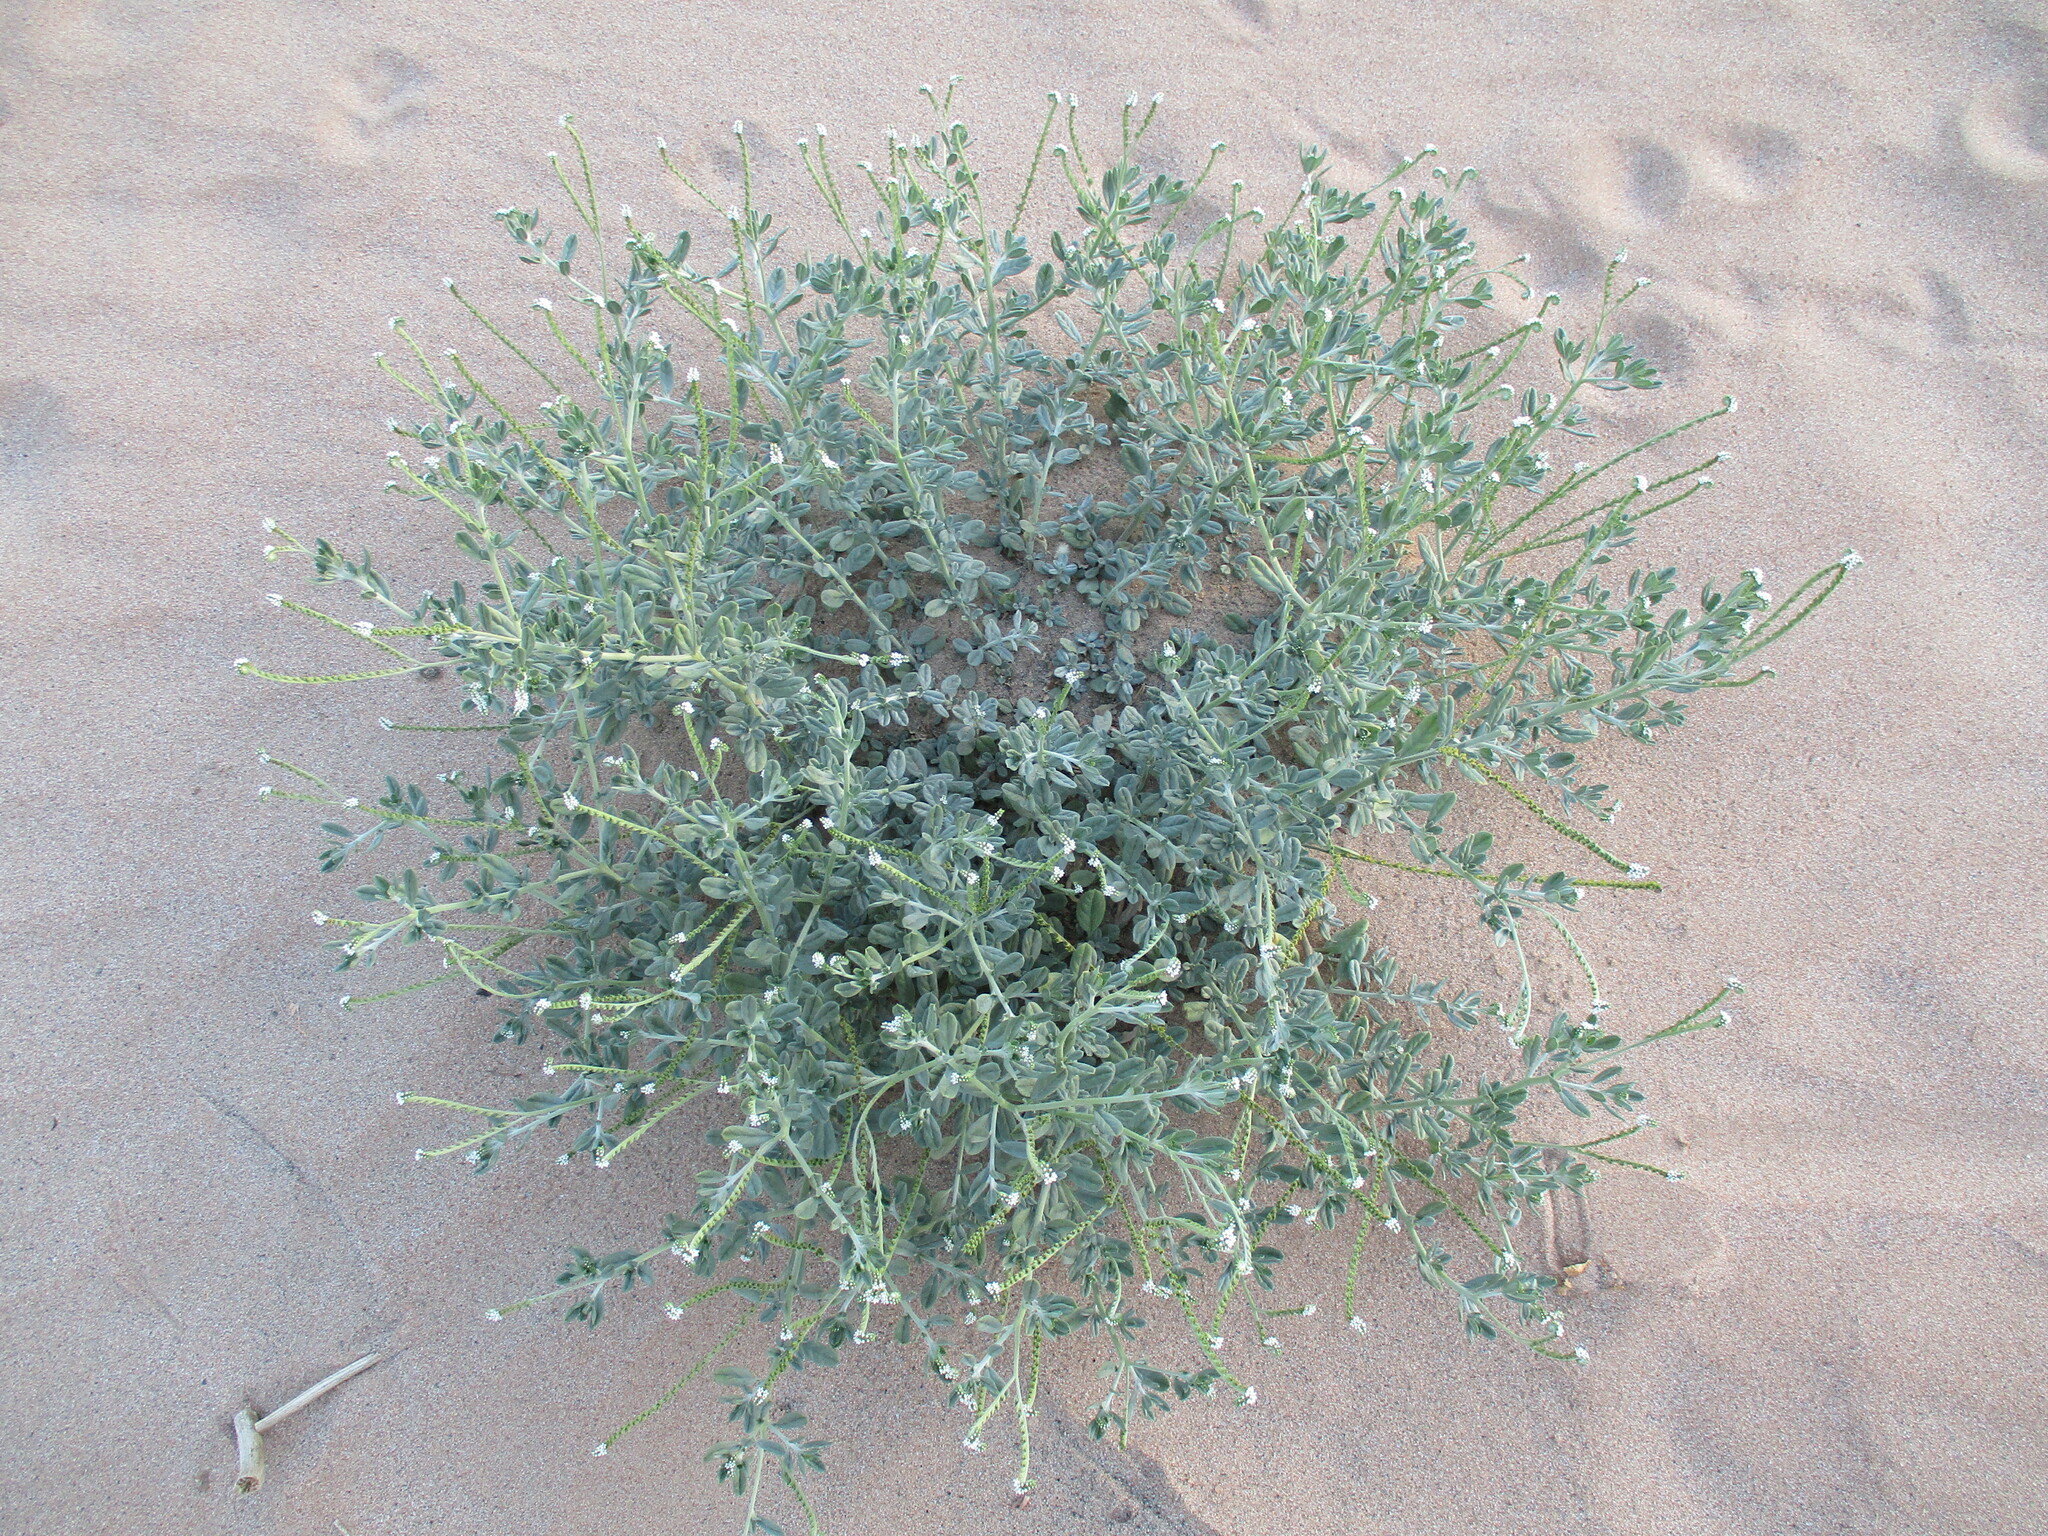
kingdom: Plantae
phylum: Tracheophyta
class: Magnoliopsida
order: Boraginales
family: Heliotropiaceae
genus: Euploca
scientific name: Euploca ovalifolia
